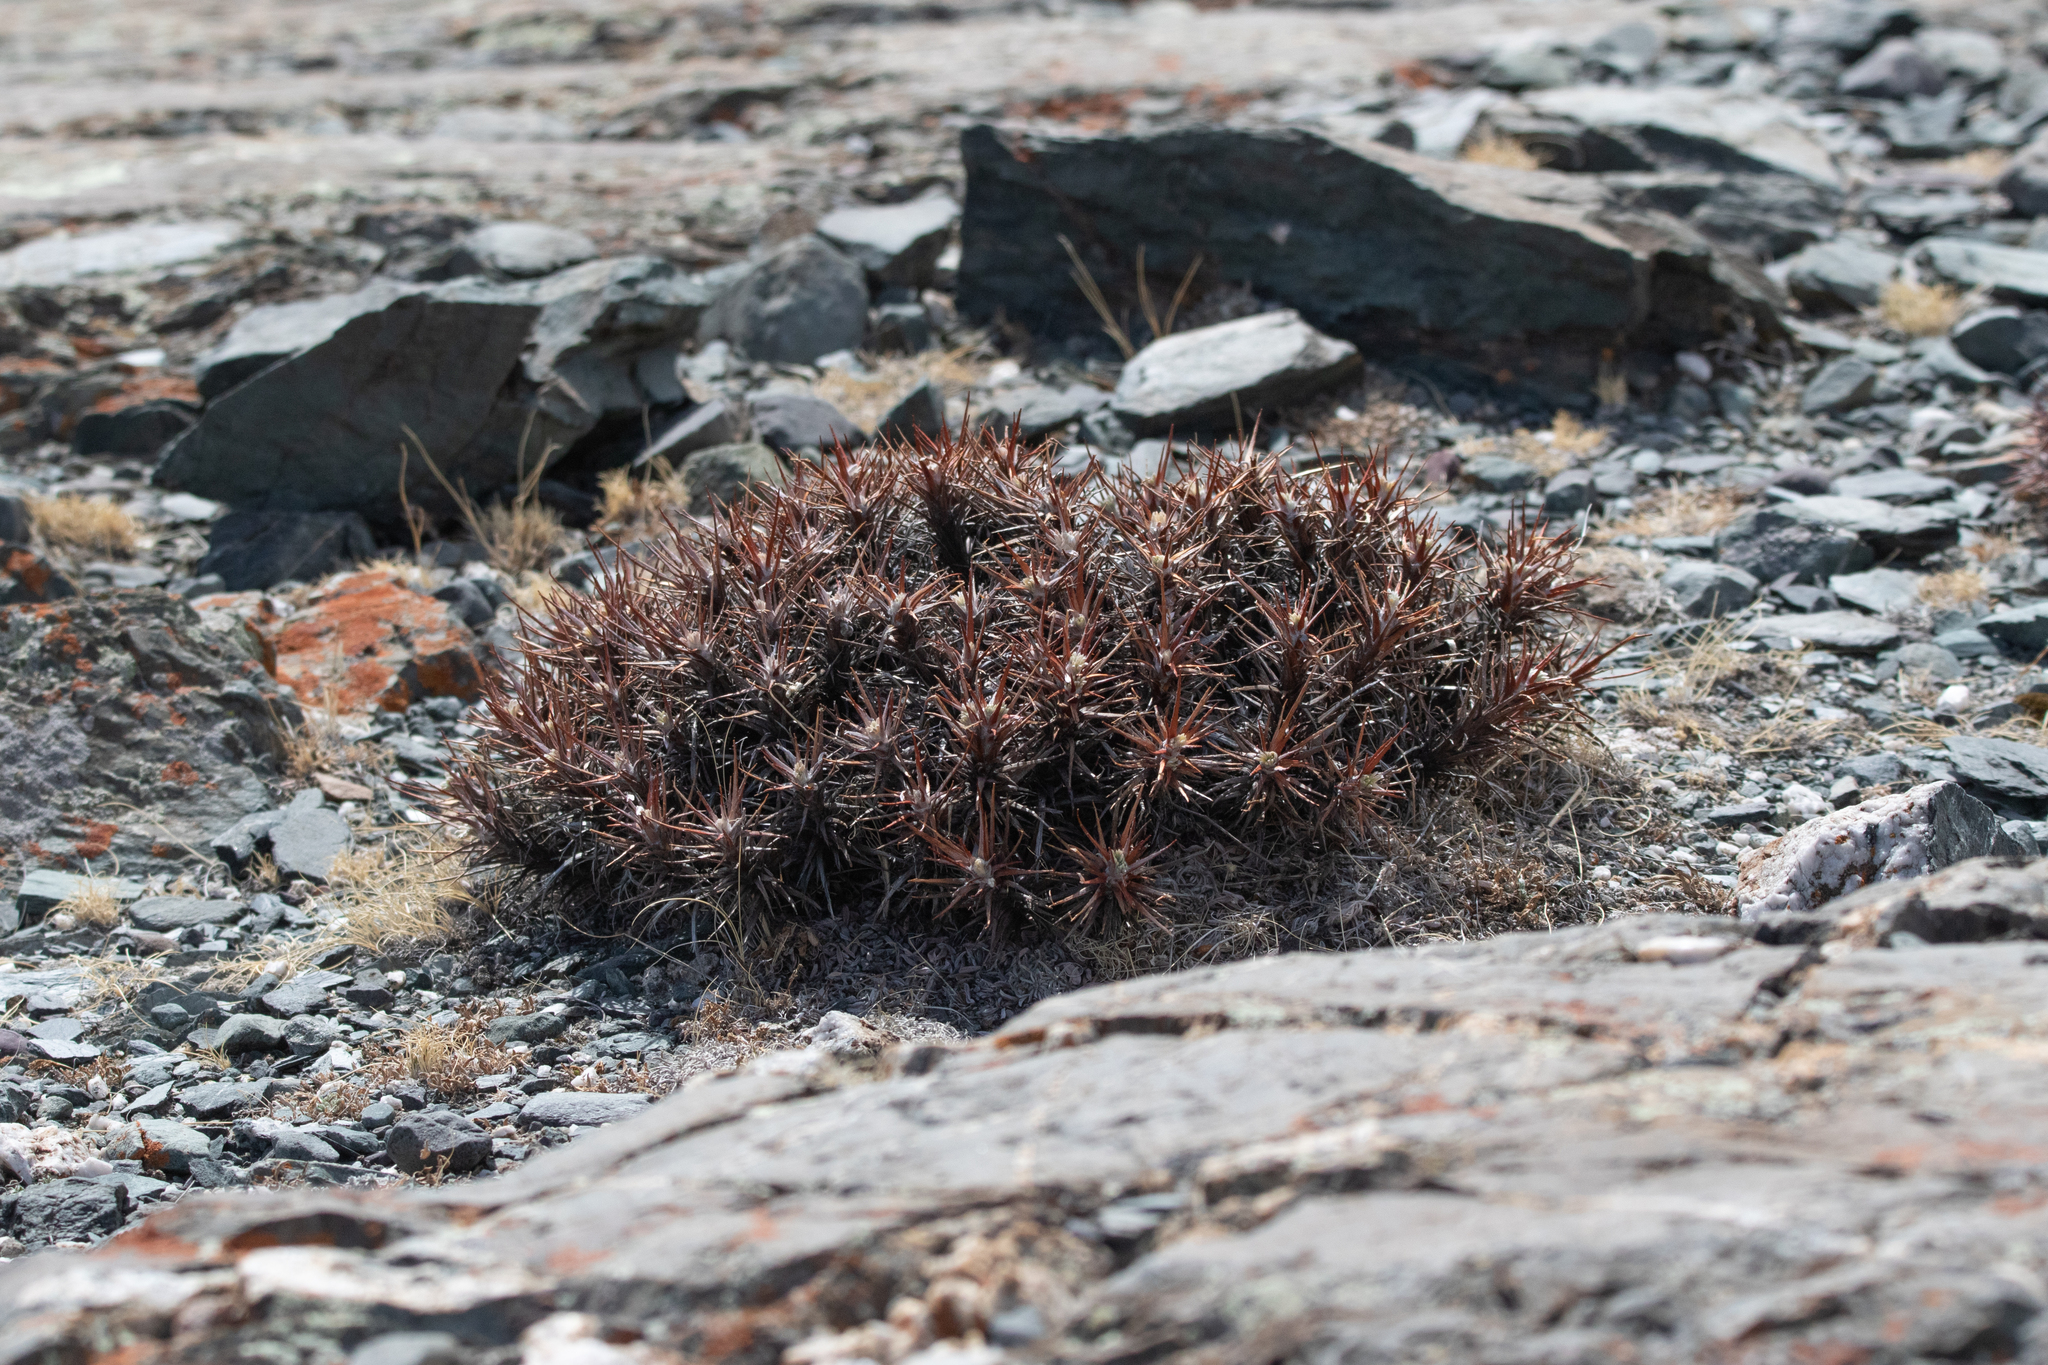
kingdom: Plantae
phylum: Tracheophyta
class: Magnoliopsida
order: Fabales
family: Fabaceae
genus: Oxytropis
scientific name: Oxytropis tragacanthoides
